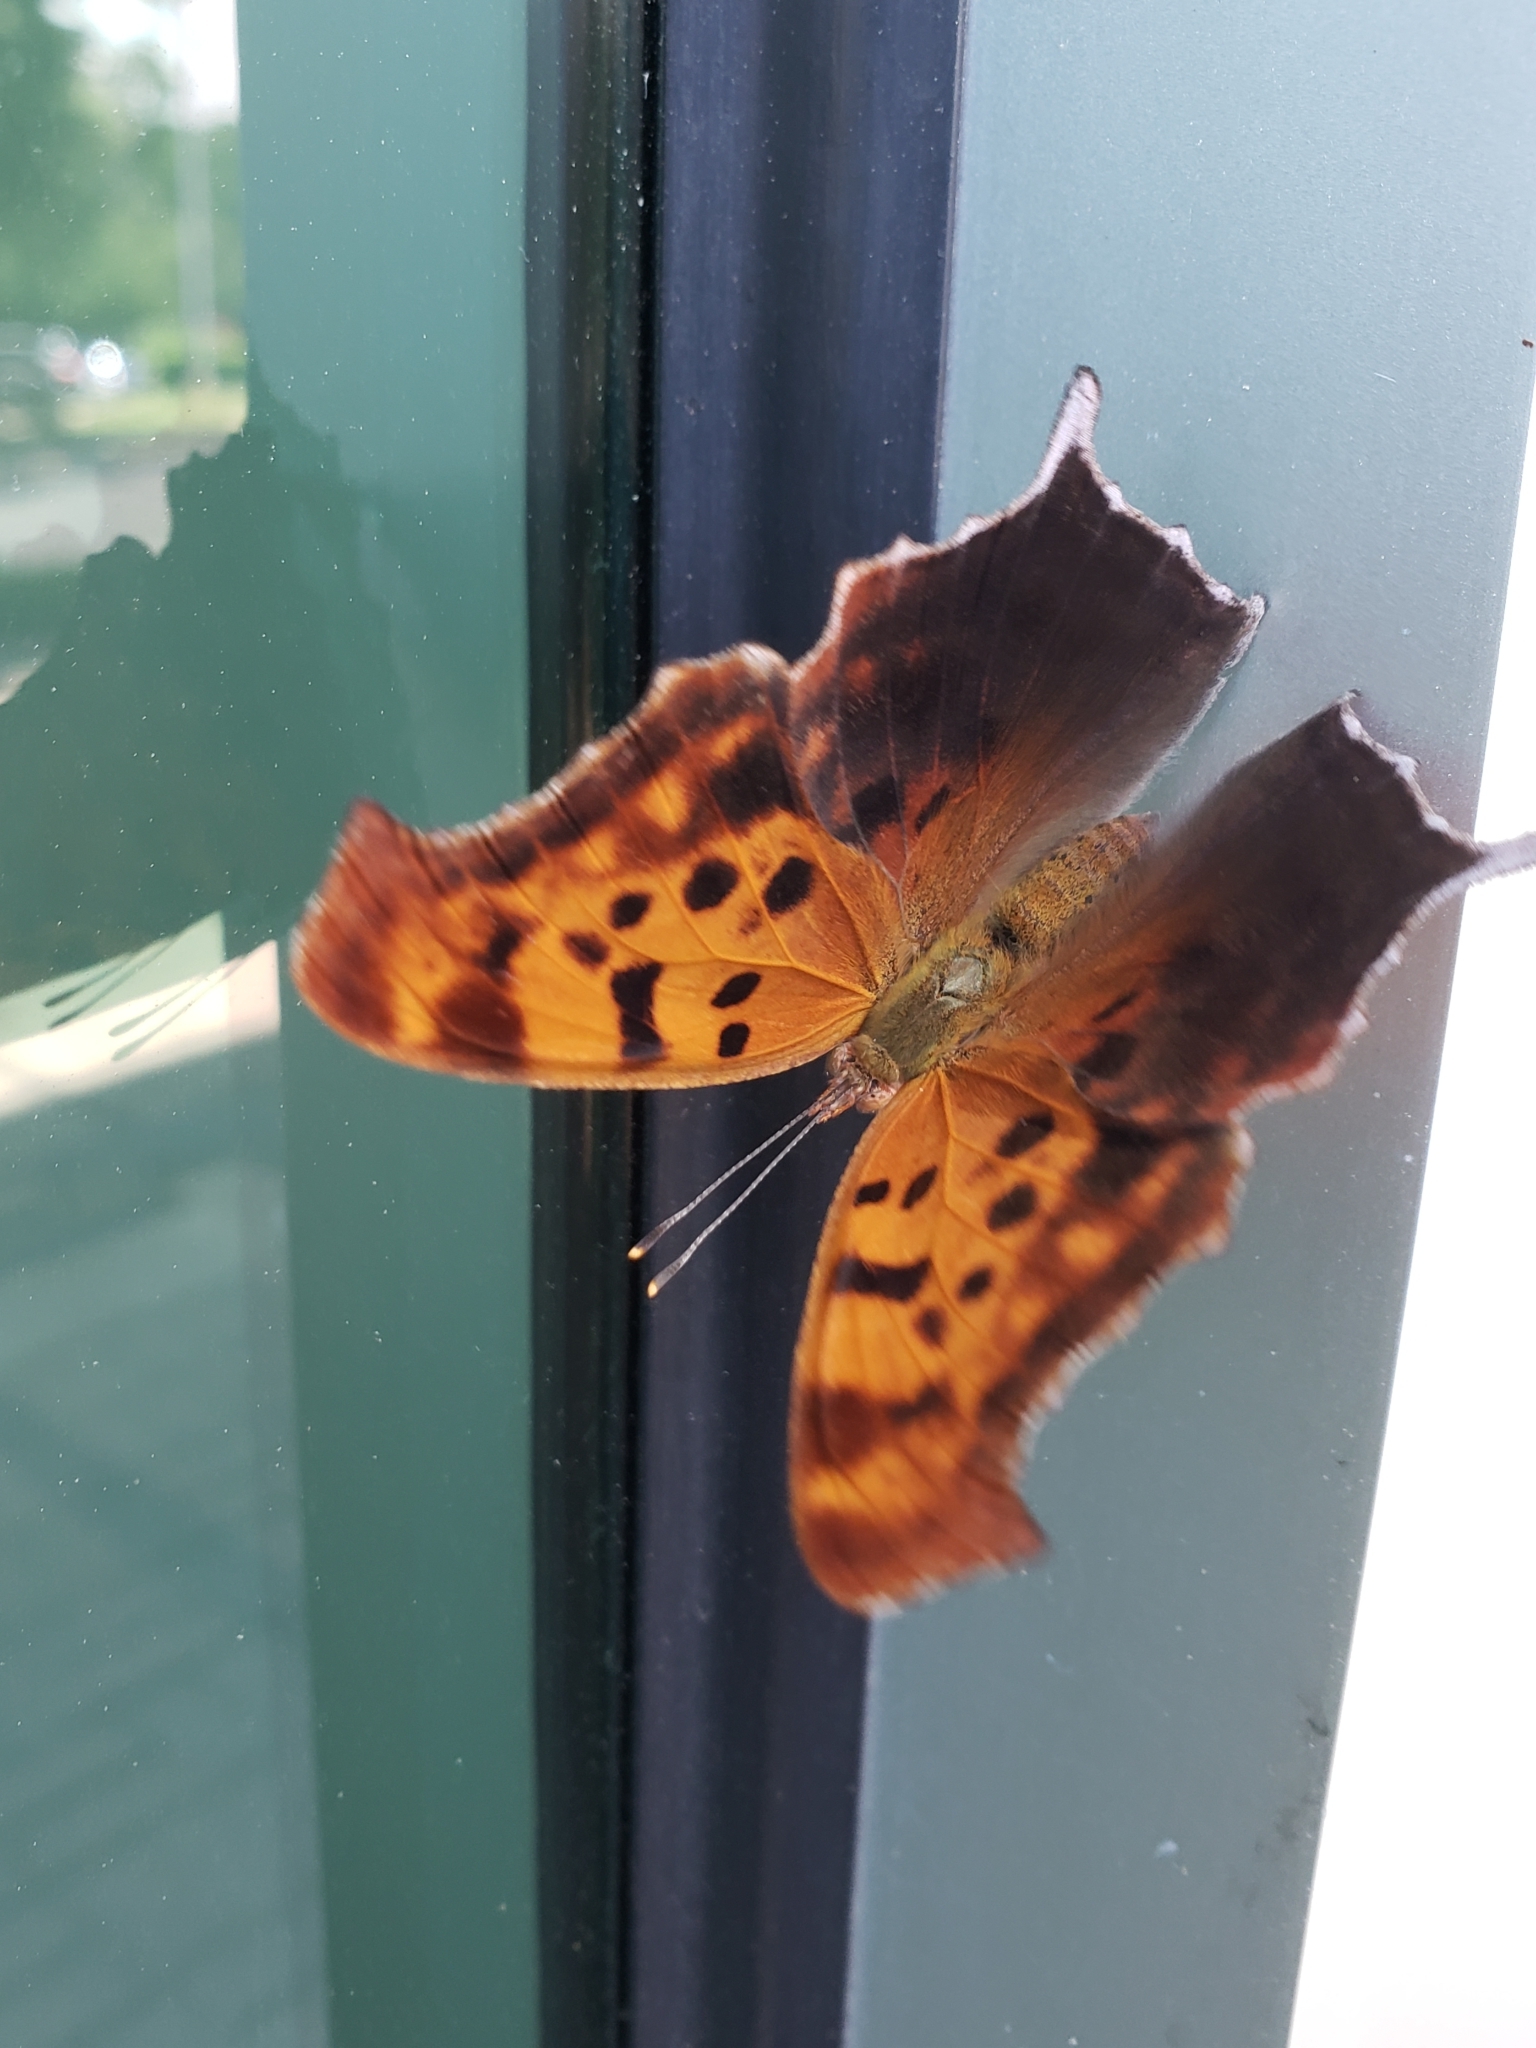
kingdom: Animalia
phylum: Arthropoda
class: Insecta
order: Lepidoptera
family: Nymphalidae
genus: Polygonia
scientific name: Polygonia interrogationis
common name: Question mark
